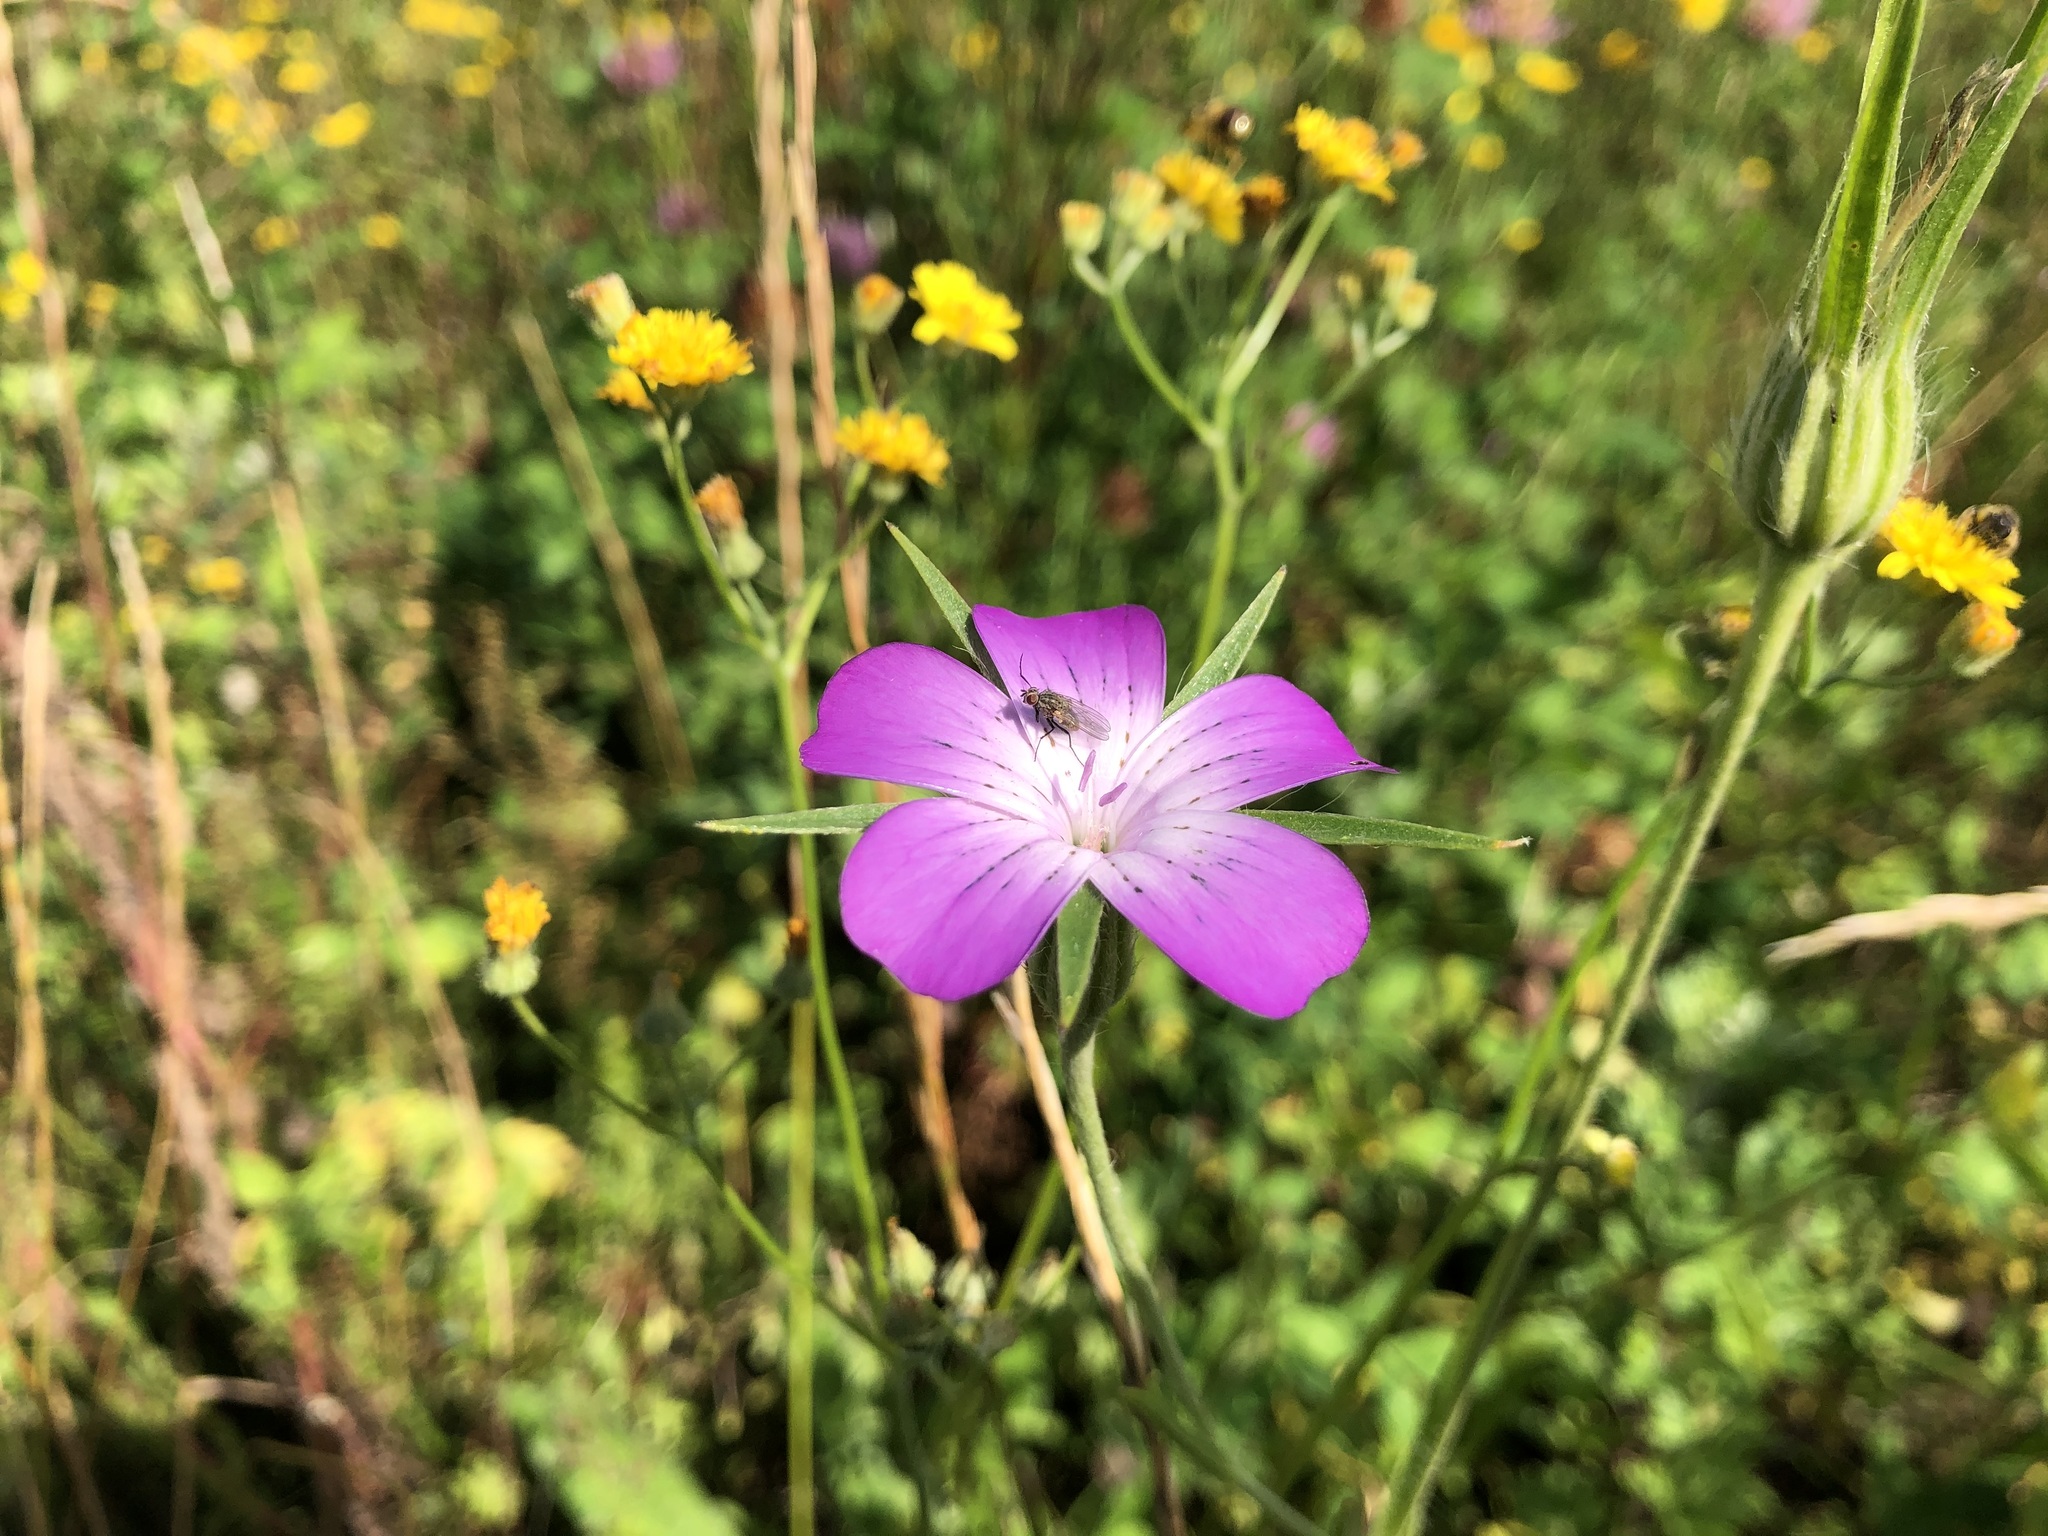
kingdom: Plantae
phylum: Tracheophyta
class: Magnoliopsida
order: Caryophyllales
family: Caryophyllaceae
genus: Agrostemma
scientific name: Agrostemma githago
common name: Common corncockle
